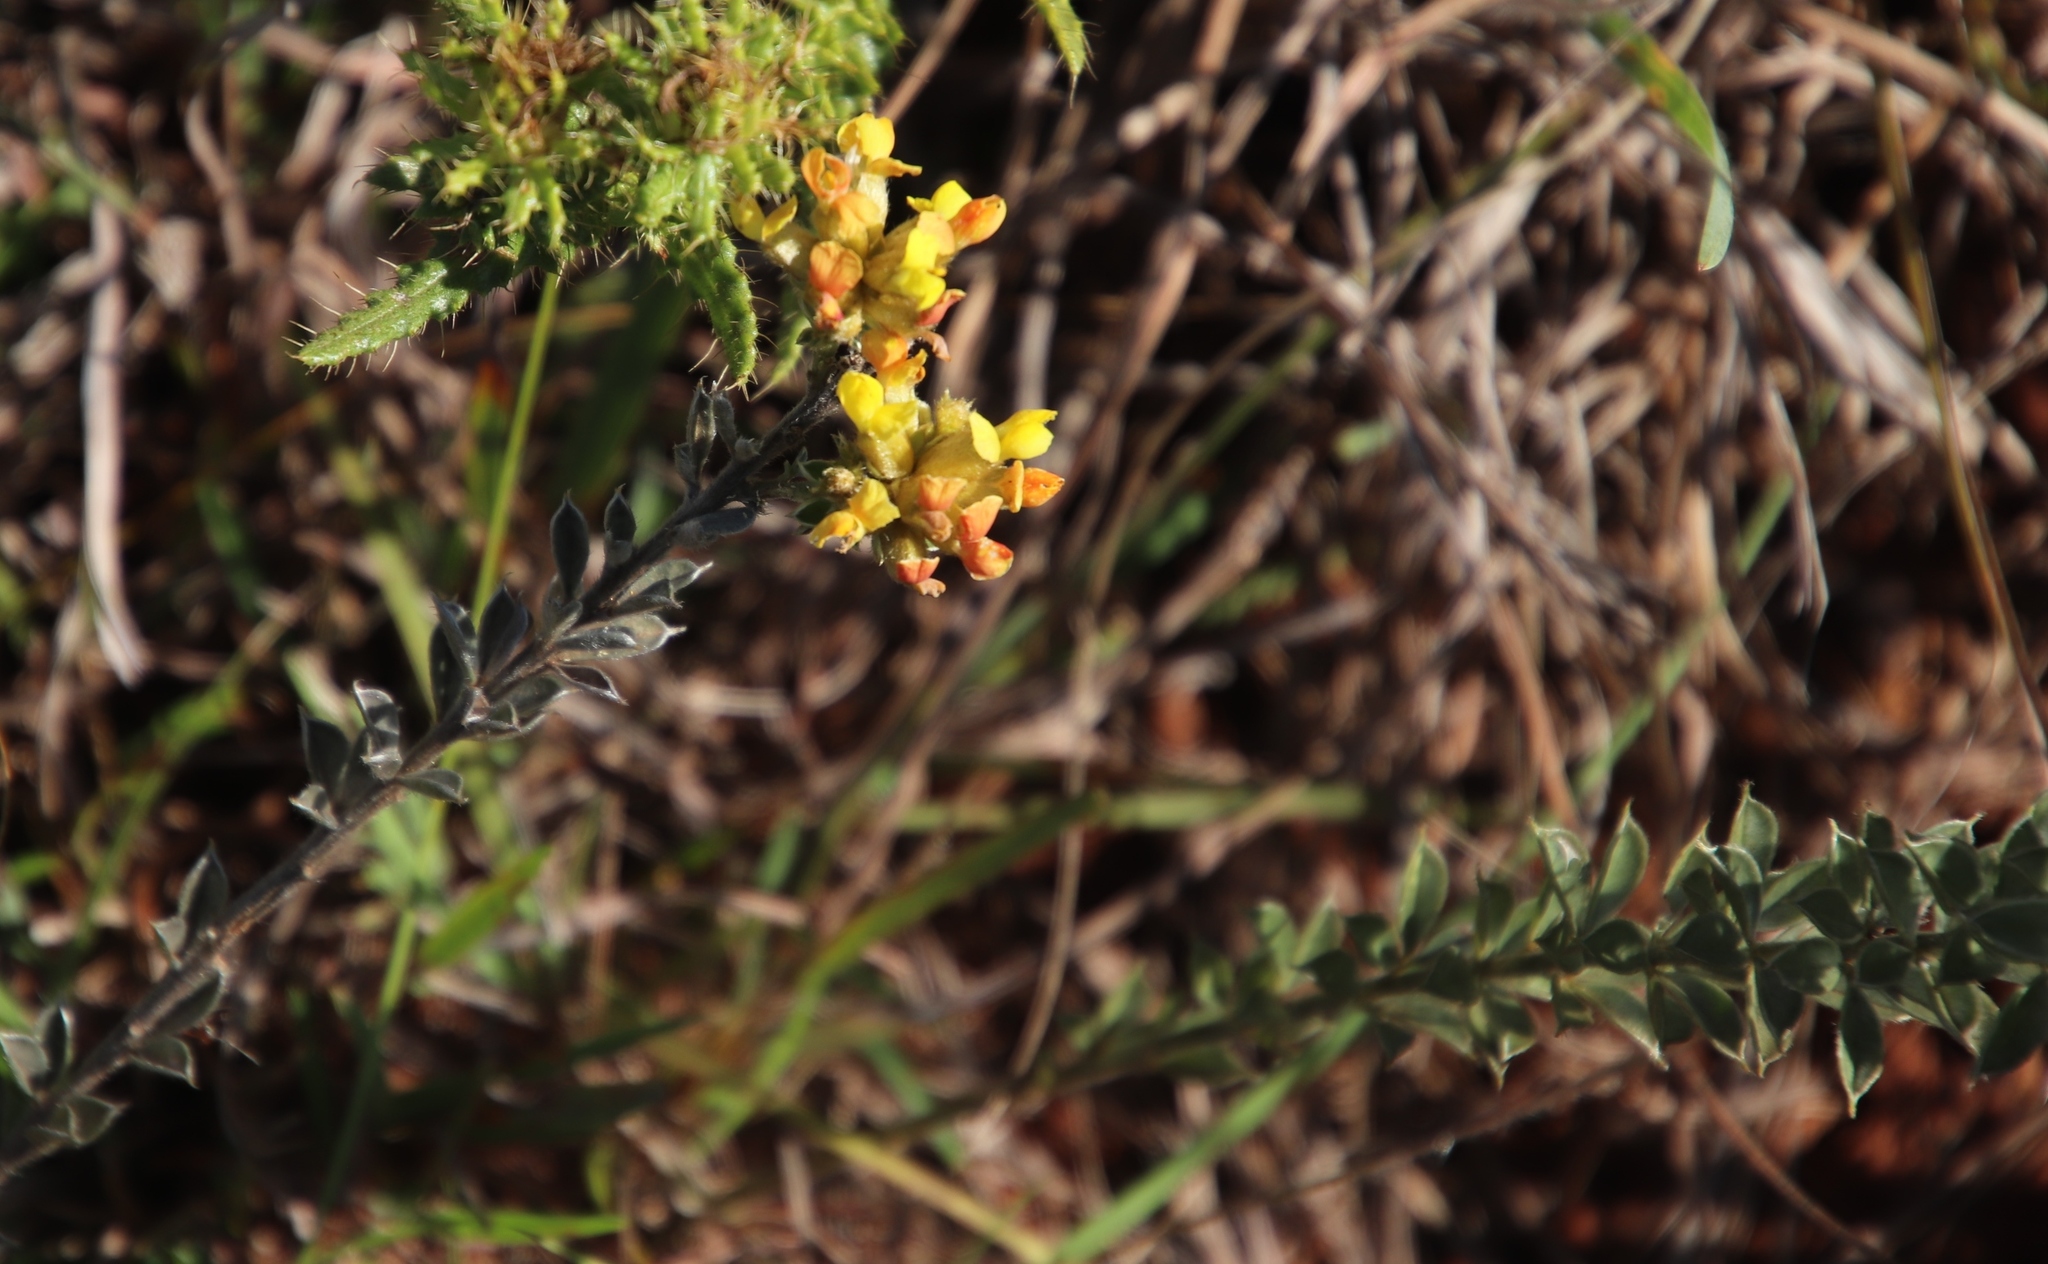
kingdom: Plantae
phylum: Tracheophyta
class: Magnoliopsida
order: Fabales
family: Fabaceae
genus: Pearsonia
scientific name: Pearsonia sessilifolia
